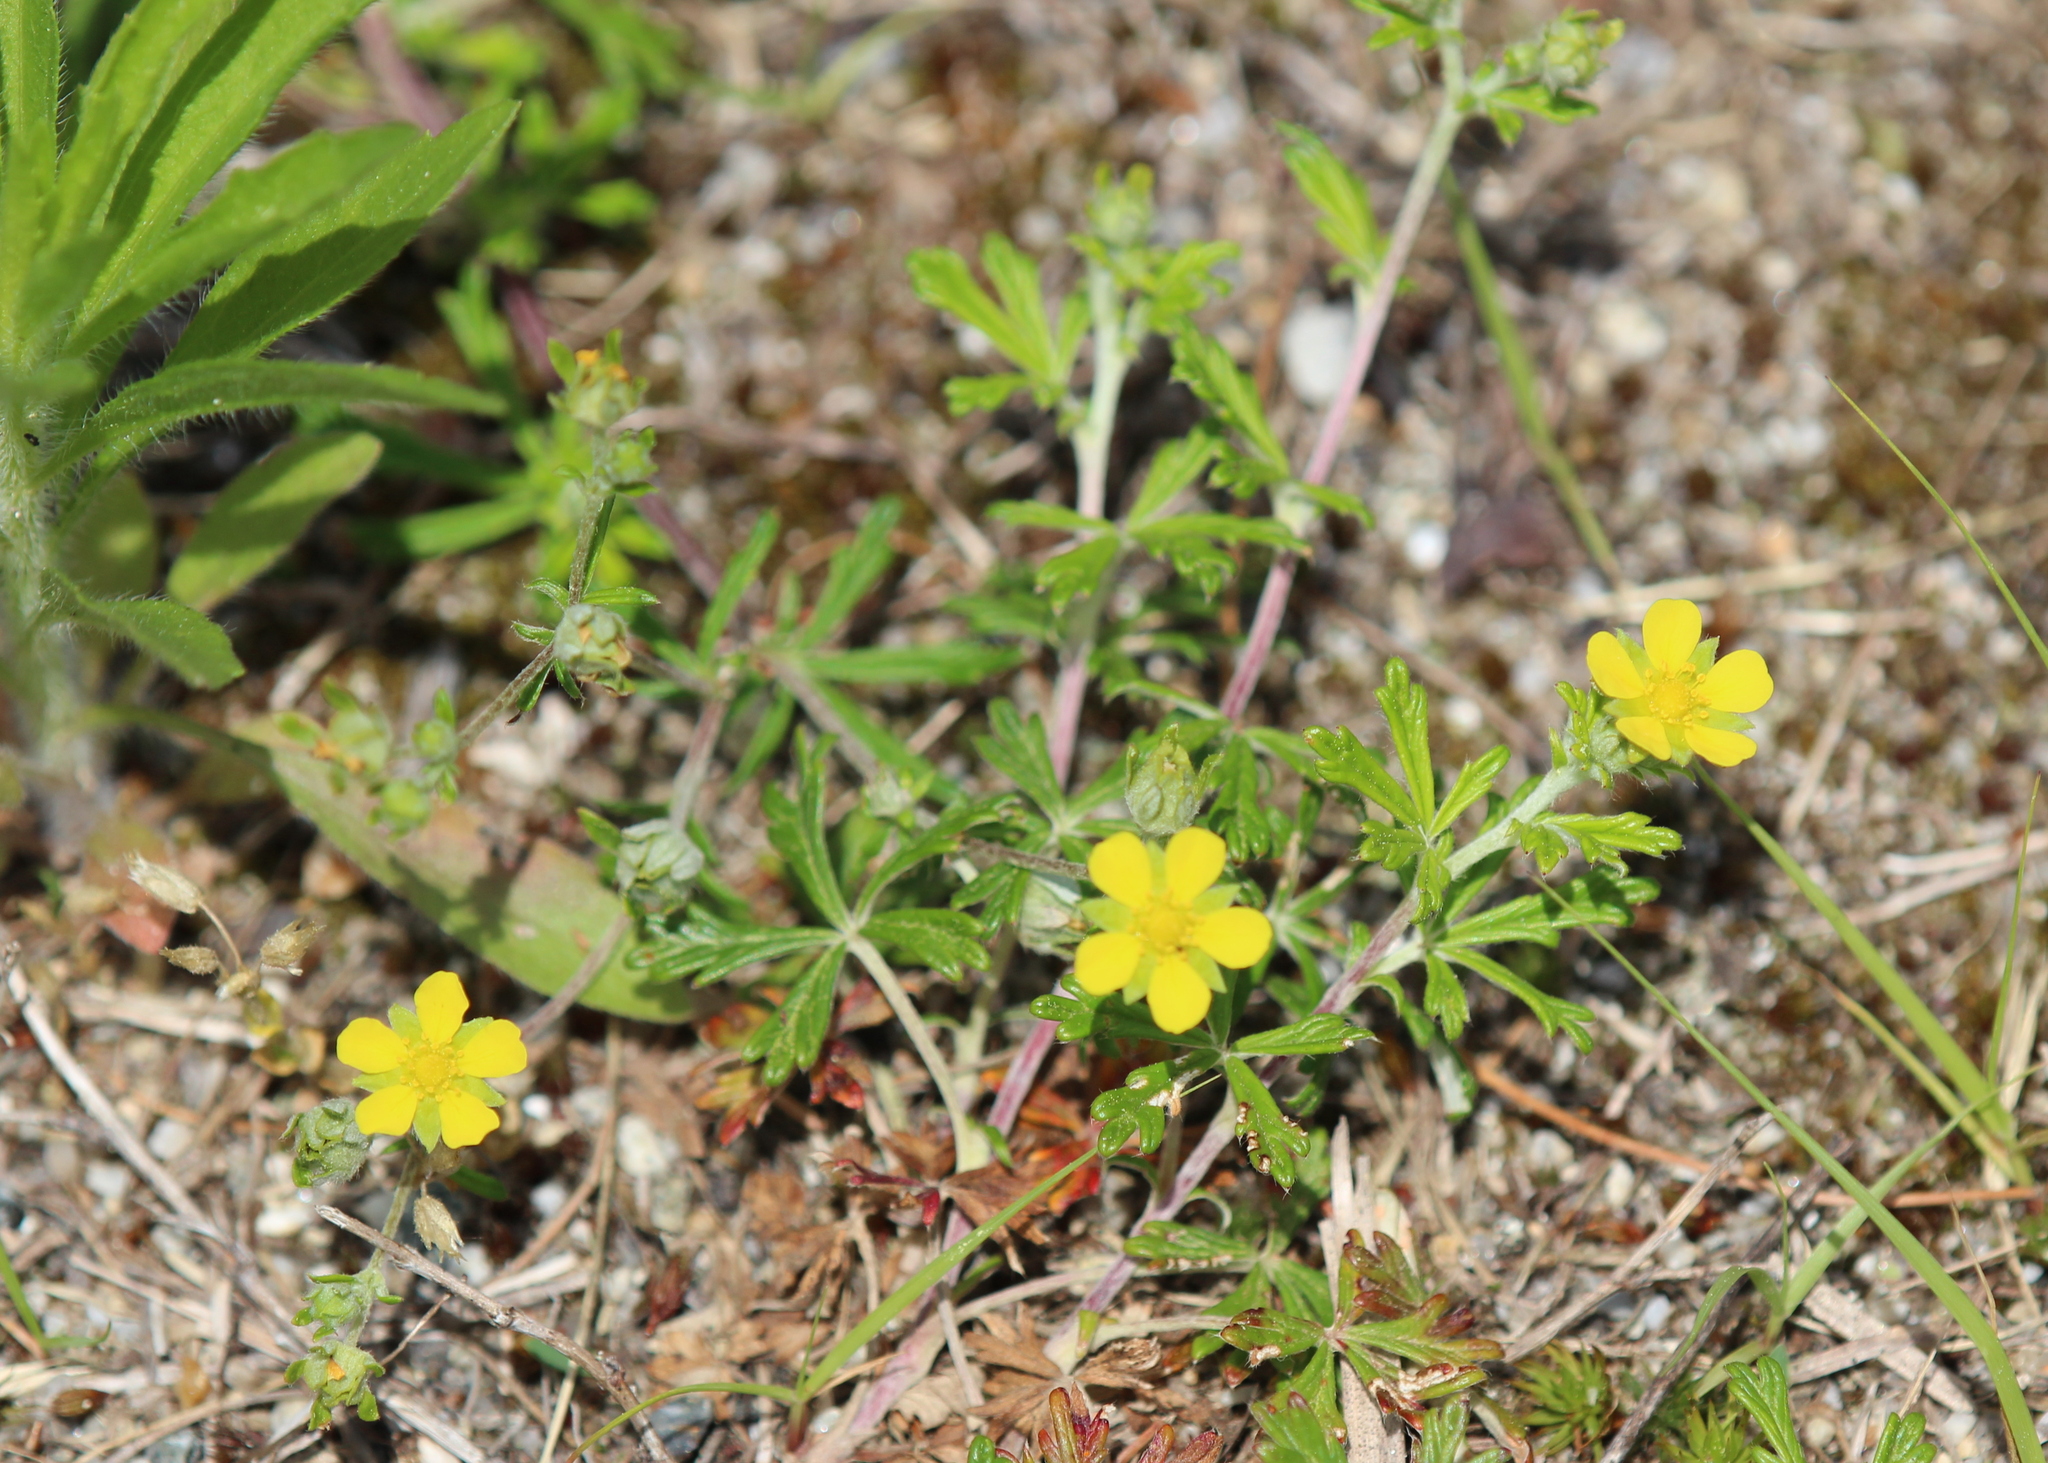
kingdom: Plantae
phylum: Tracheophyta
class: Magnoliopsida
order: Rosales
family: Rosaceae
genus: Potentilla
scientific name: Potentilla argentea
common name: Hoary cinquefoil
